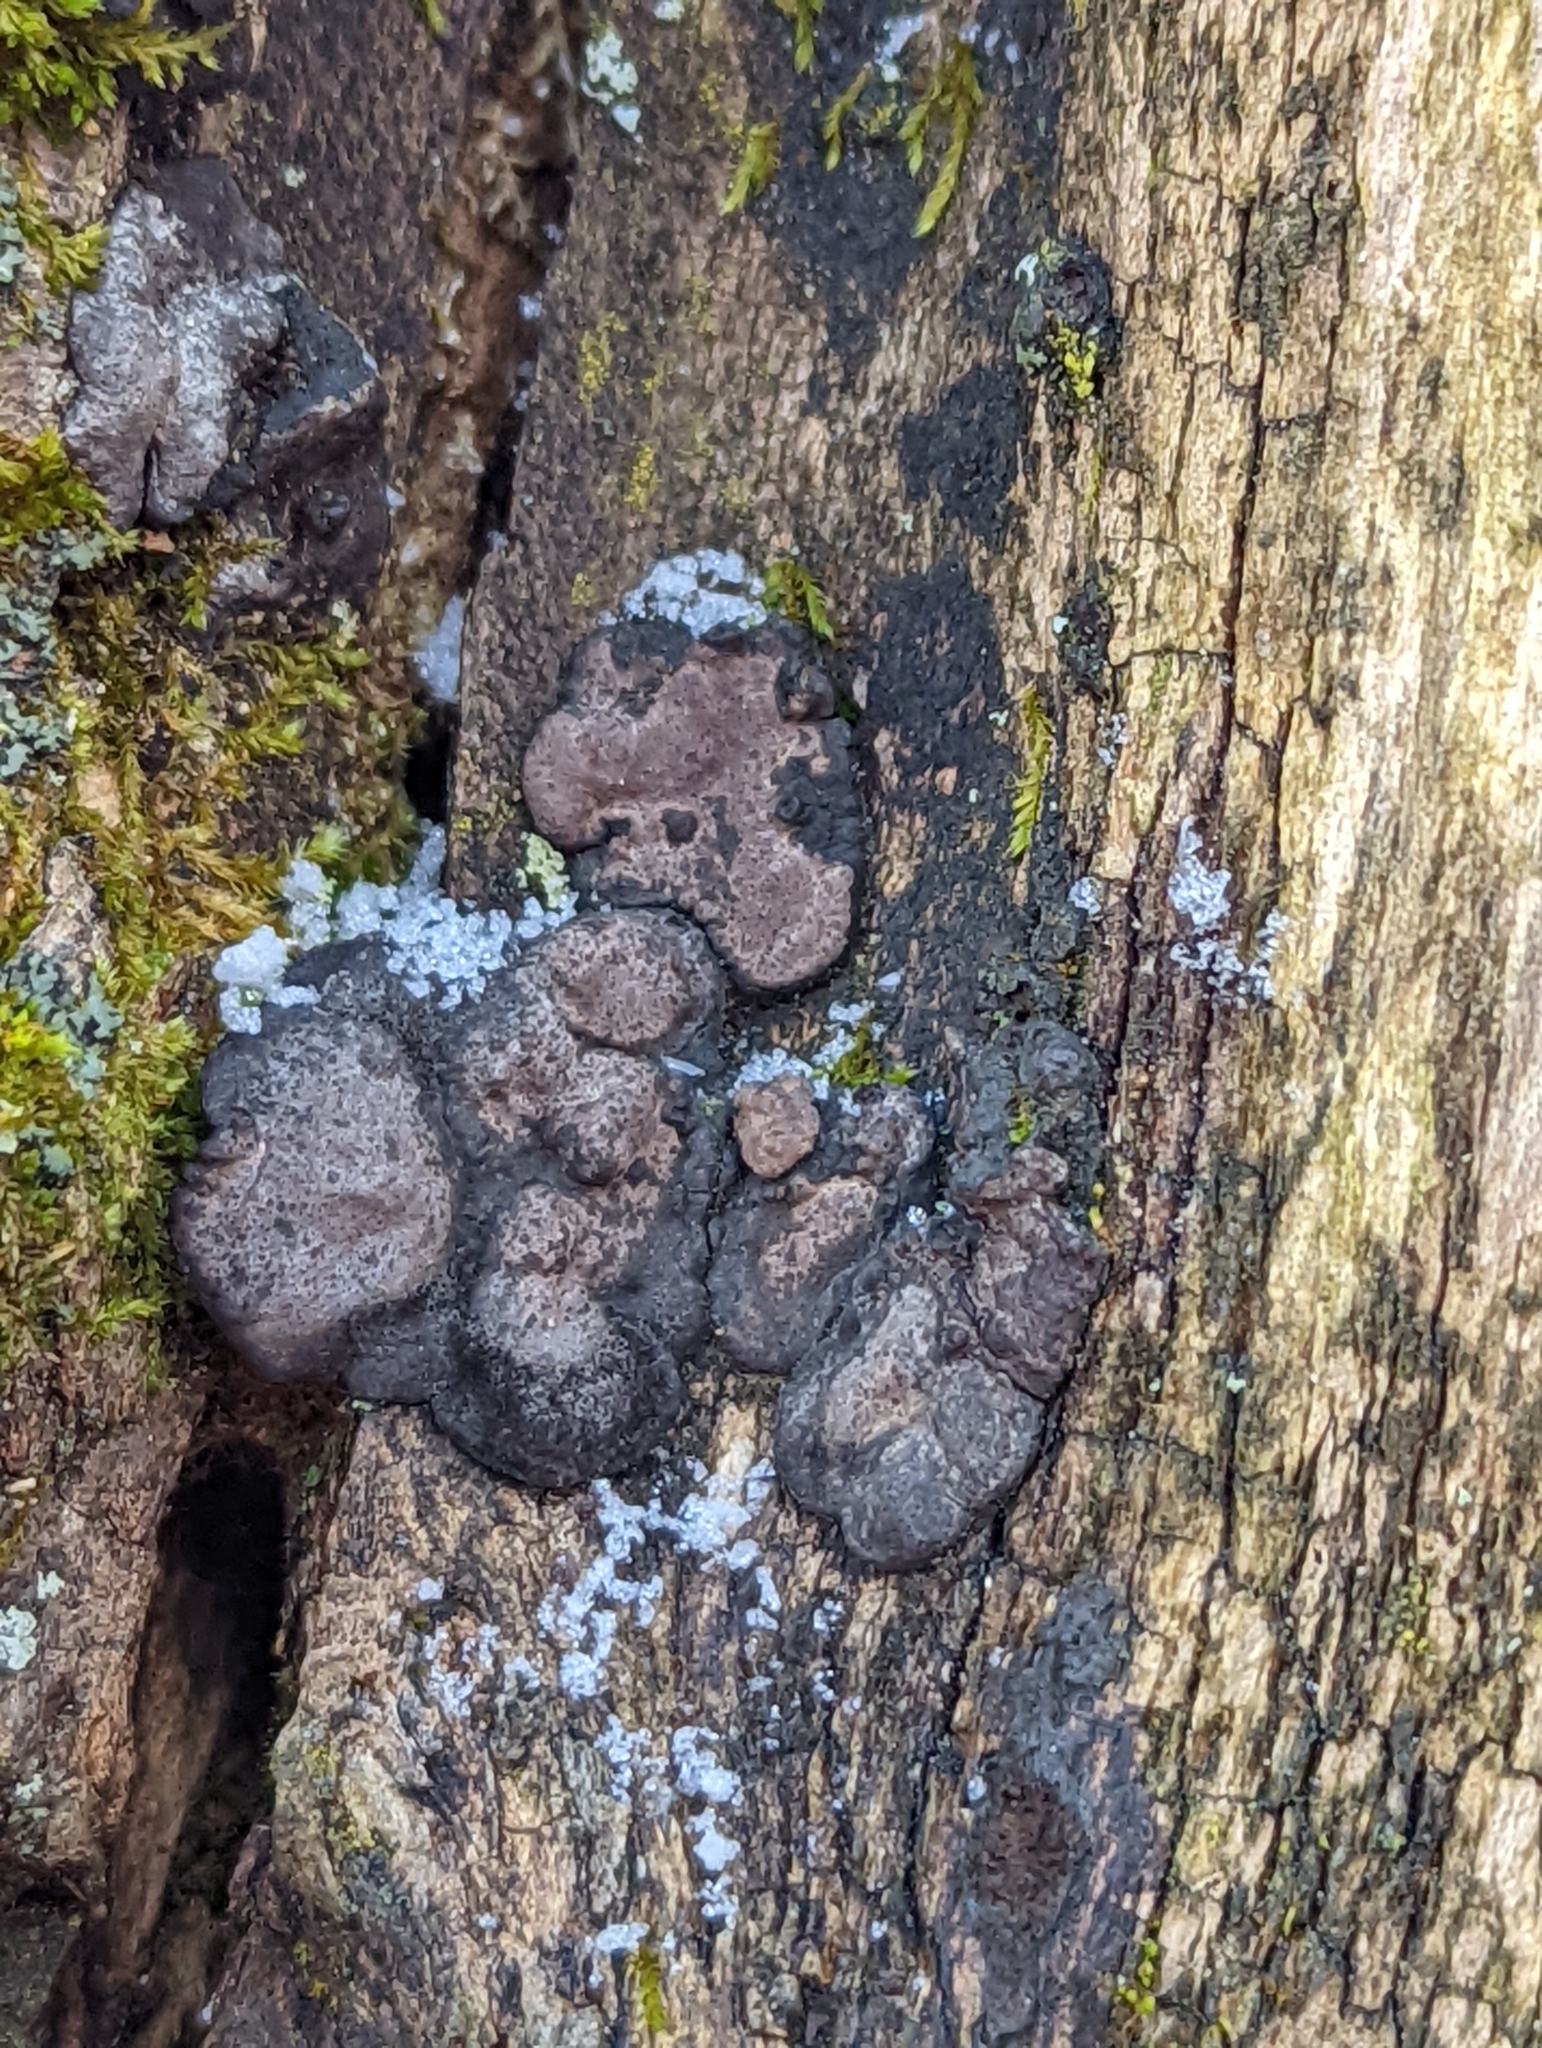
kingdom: Fungi
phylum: Ascomycota
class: Sordariomycetes
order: Xylariales
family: Xylariaceae
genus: Kretzschmaria
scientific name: Kretzschmaria deusta
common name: Brittle cinder
